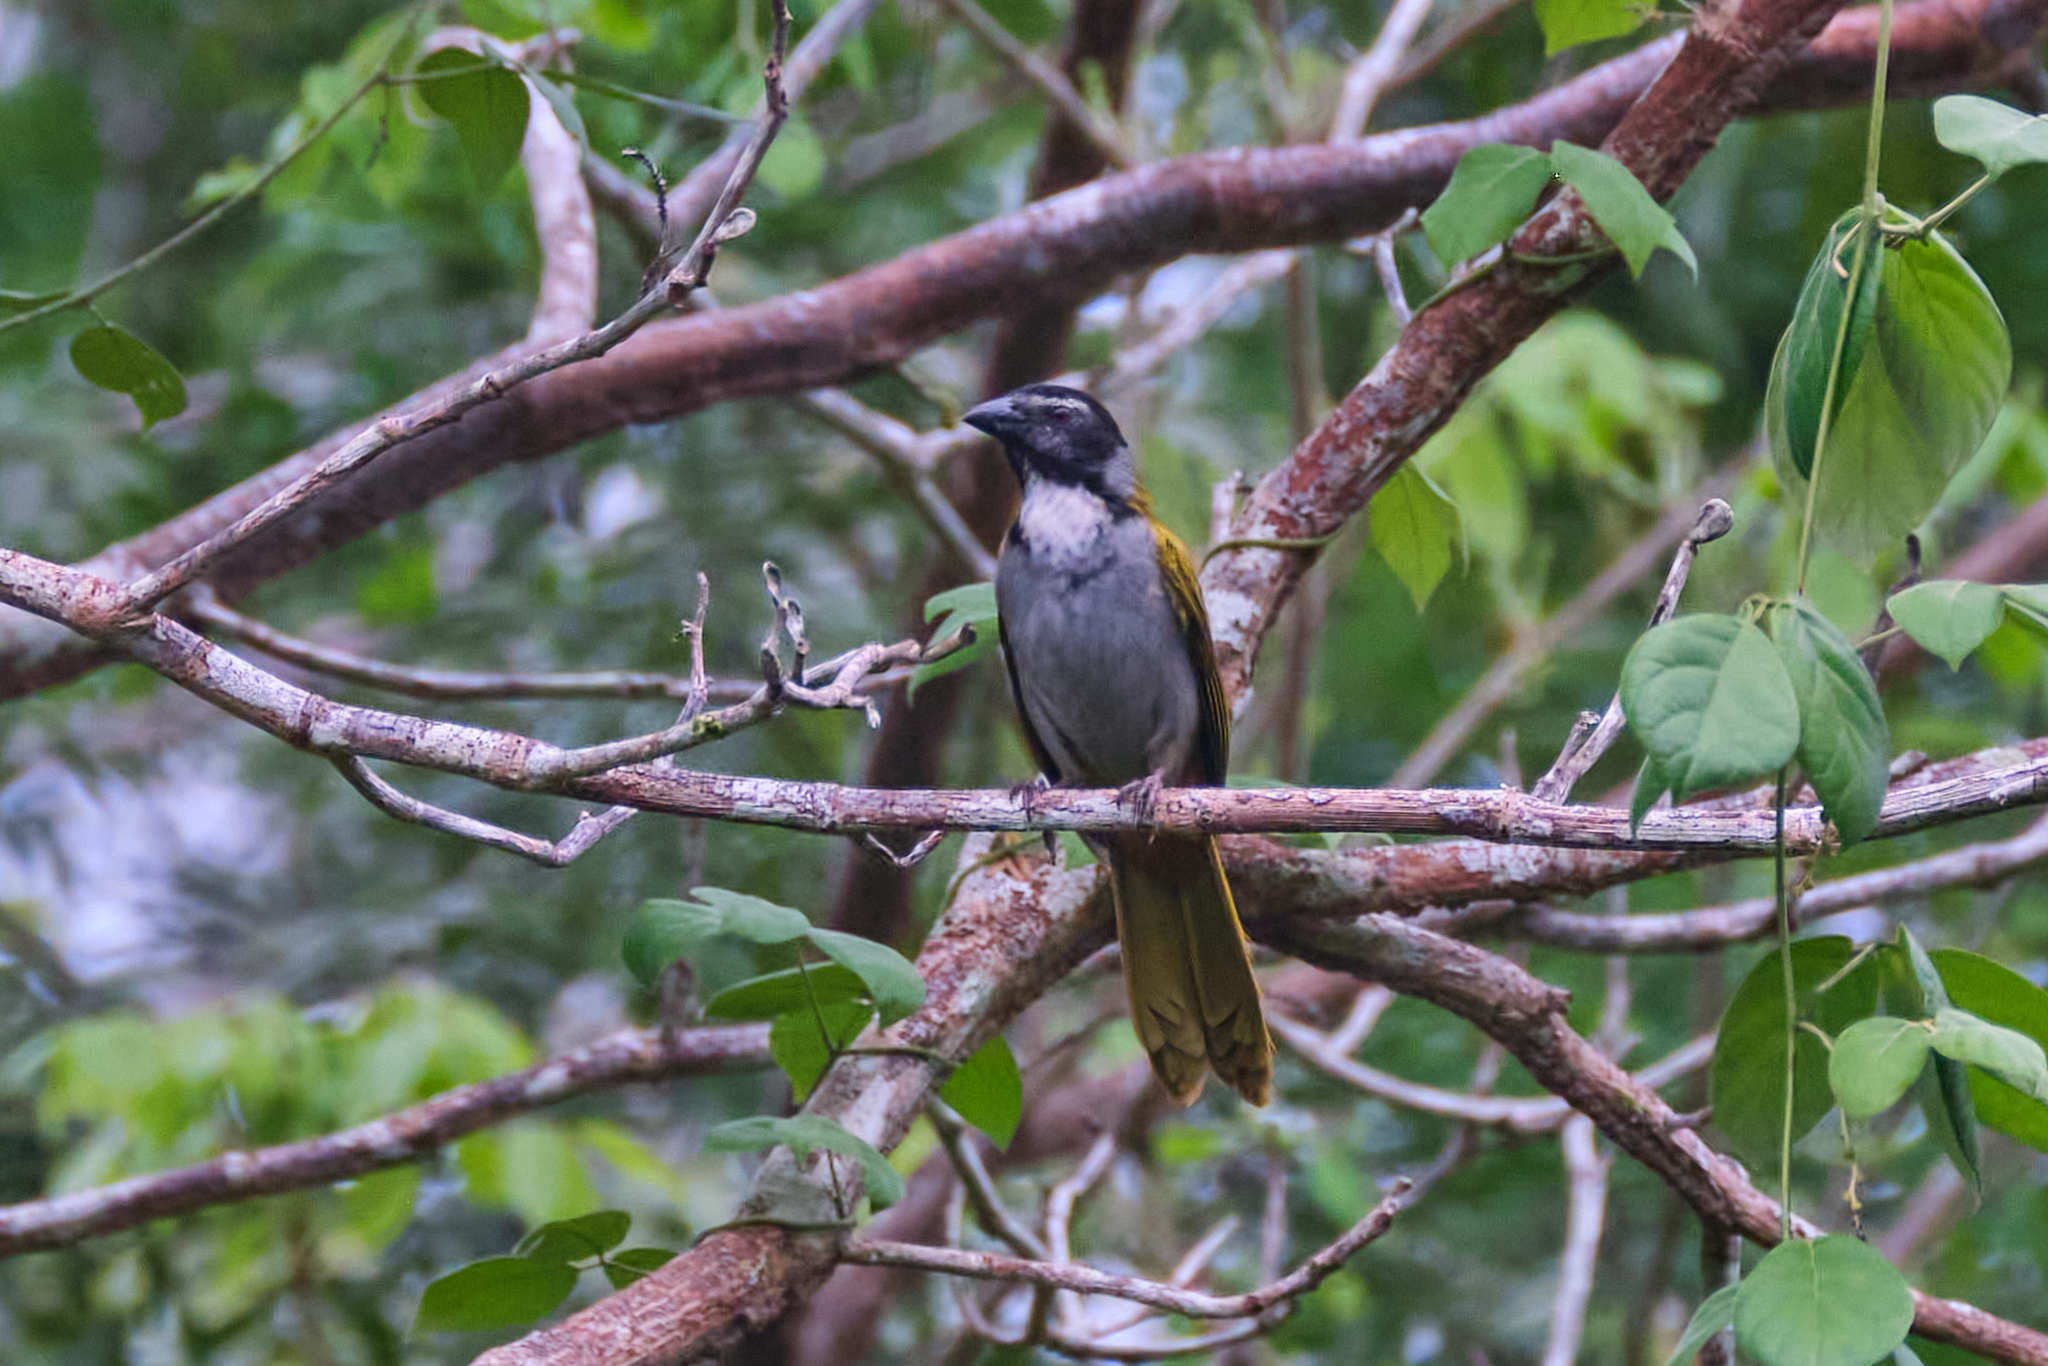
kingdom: Animalia
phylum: Chordata
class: Aves
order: Passeriformes
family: Thraupidae
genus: Saltator
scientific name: Saltator atriceps
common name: Black-headed saltator
